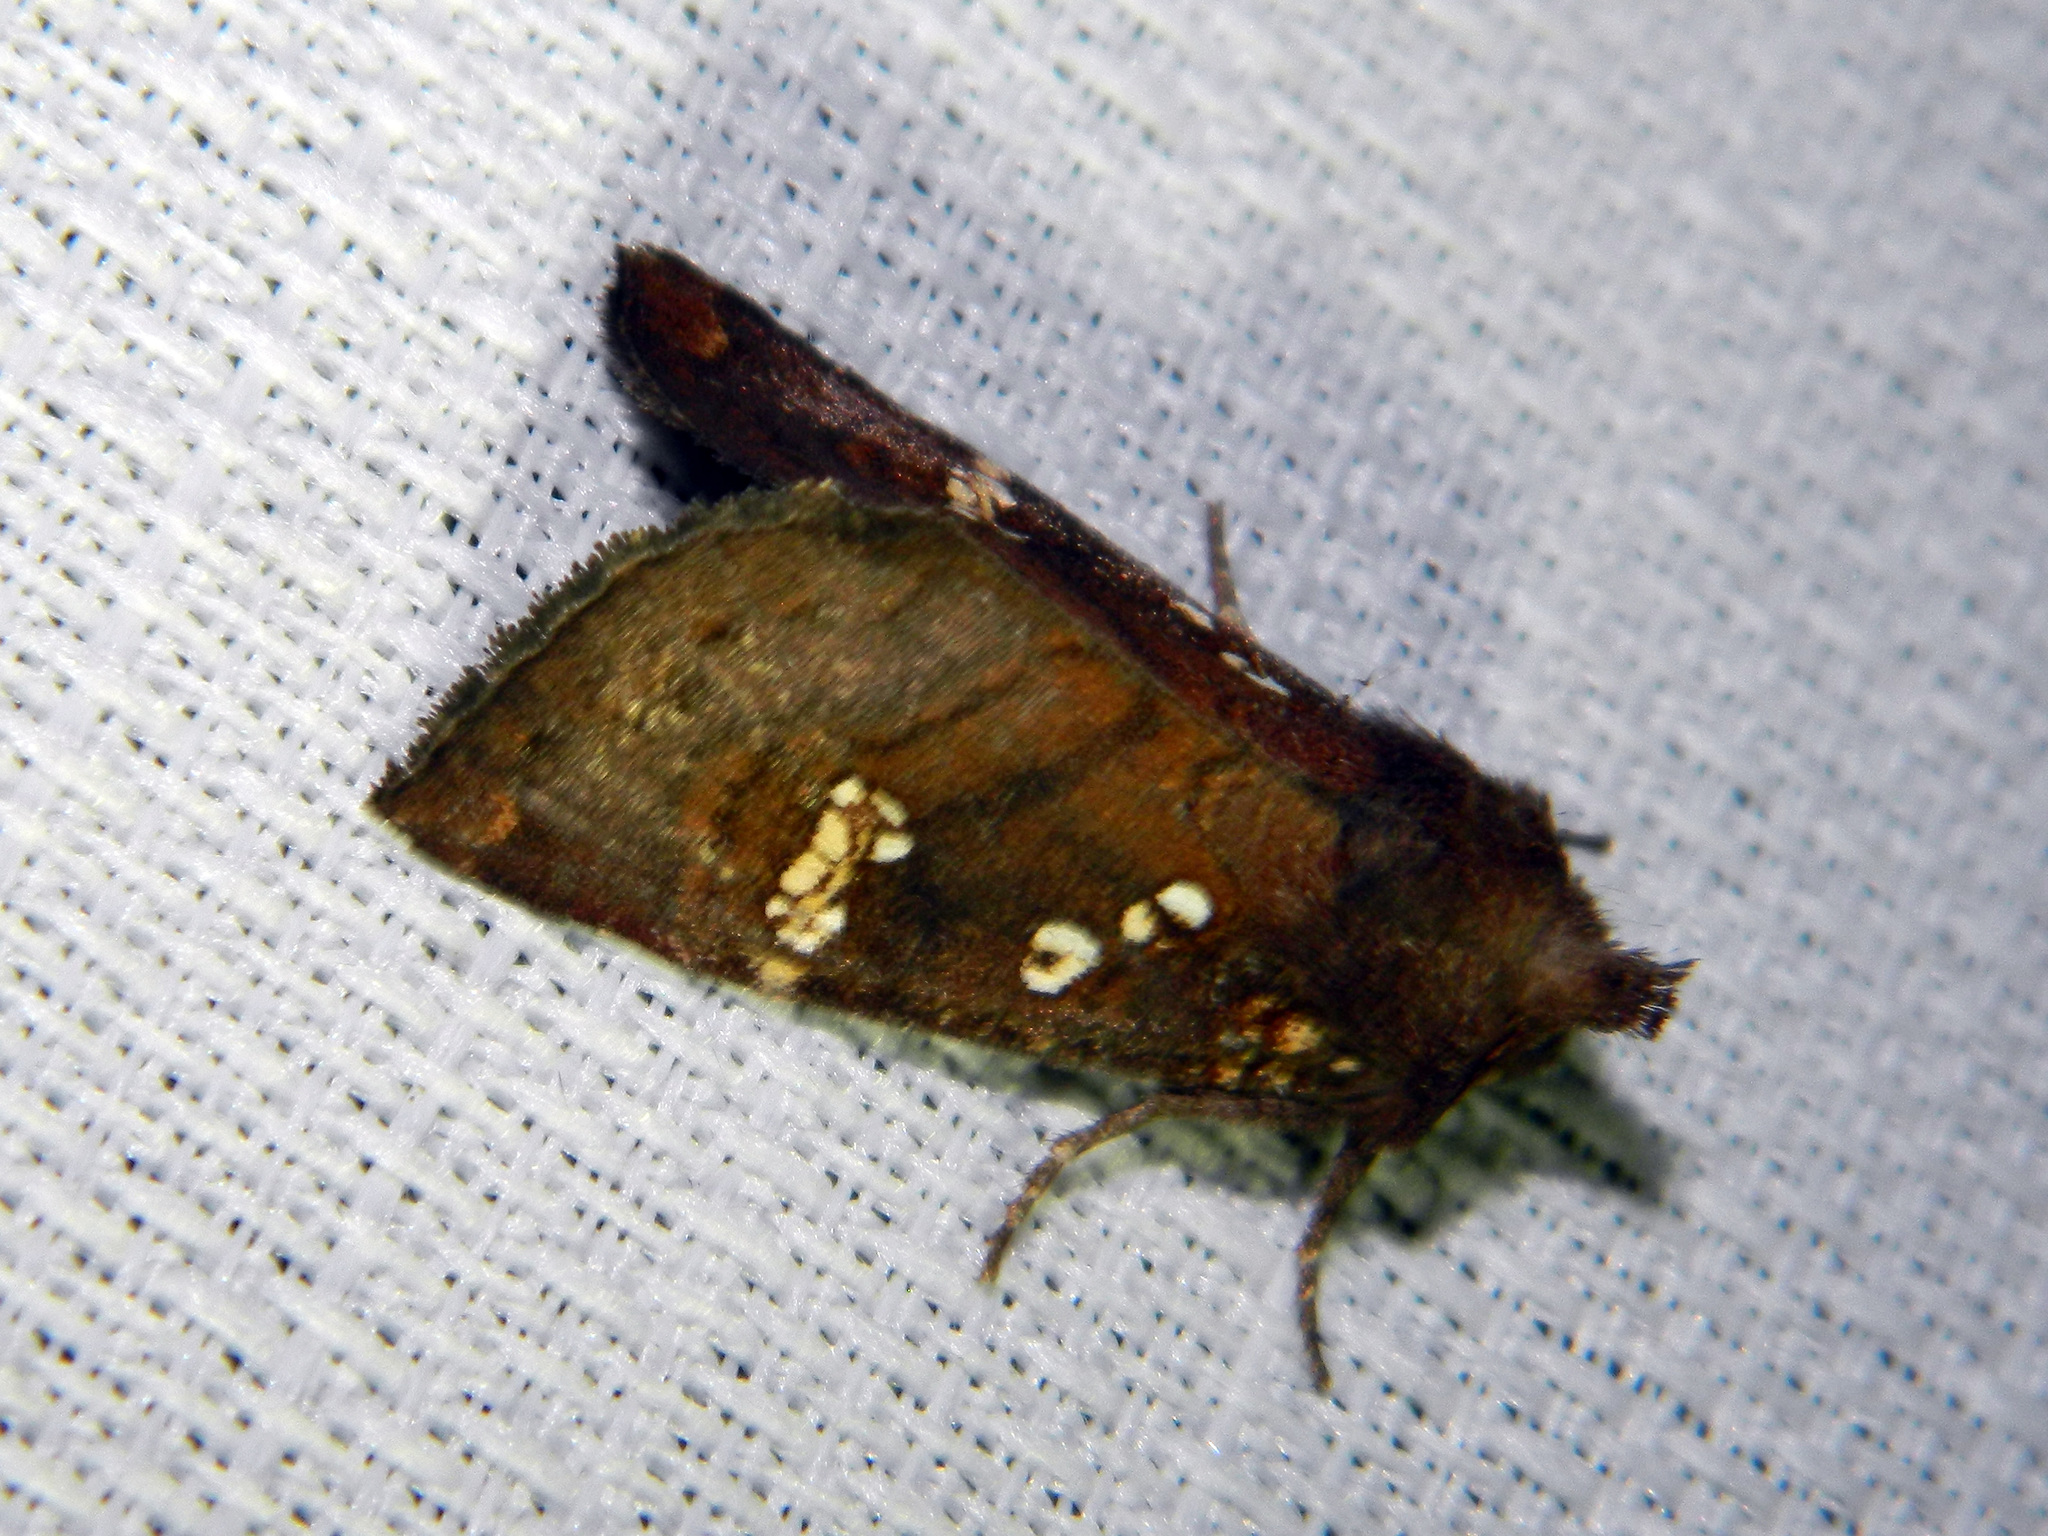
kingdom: Animalia
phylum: Arthropoda
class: Insecta
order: Lepidoptera
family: Noctuidae
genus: Papaipema
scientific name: Papaipema unimoda
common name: Meadow rue borer moth
